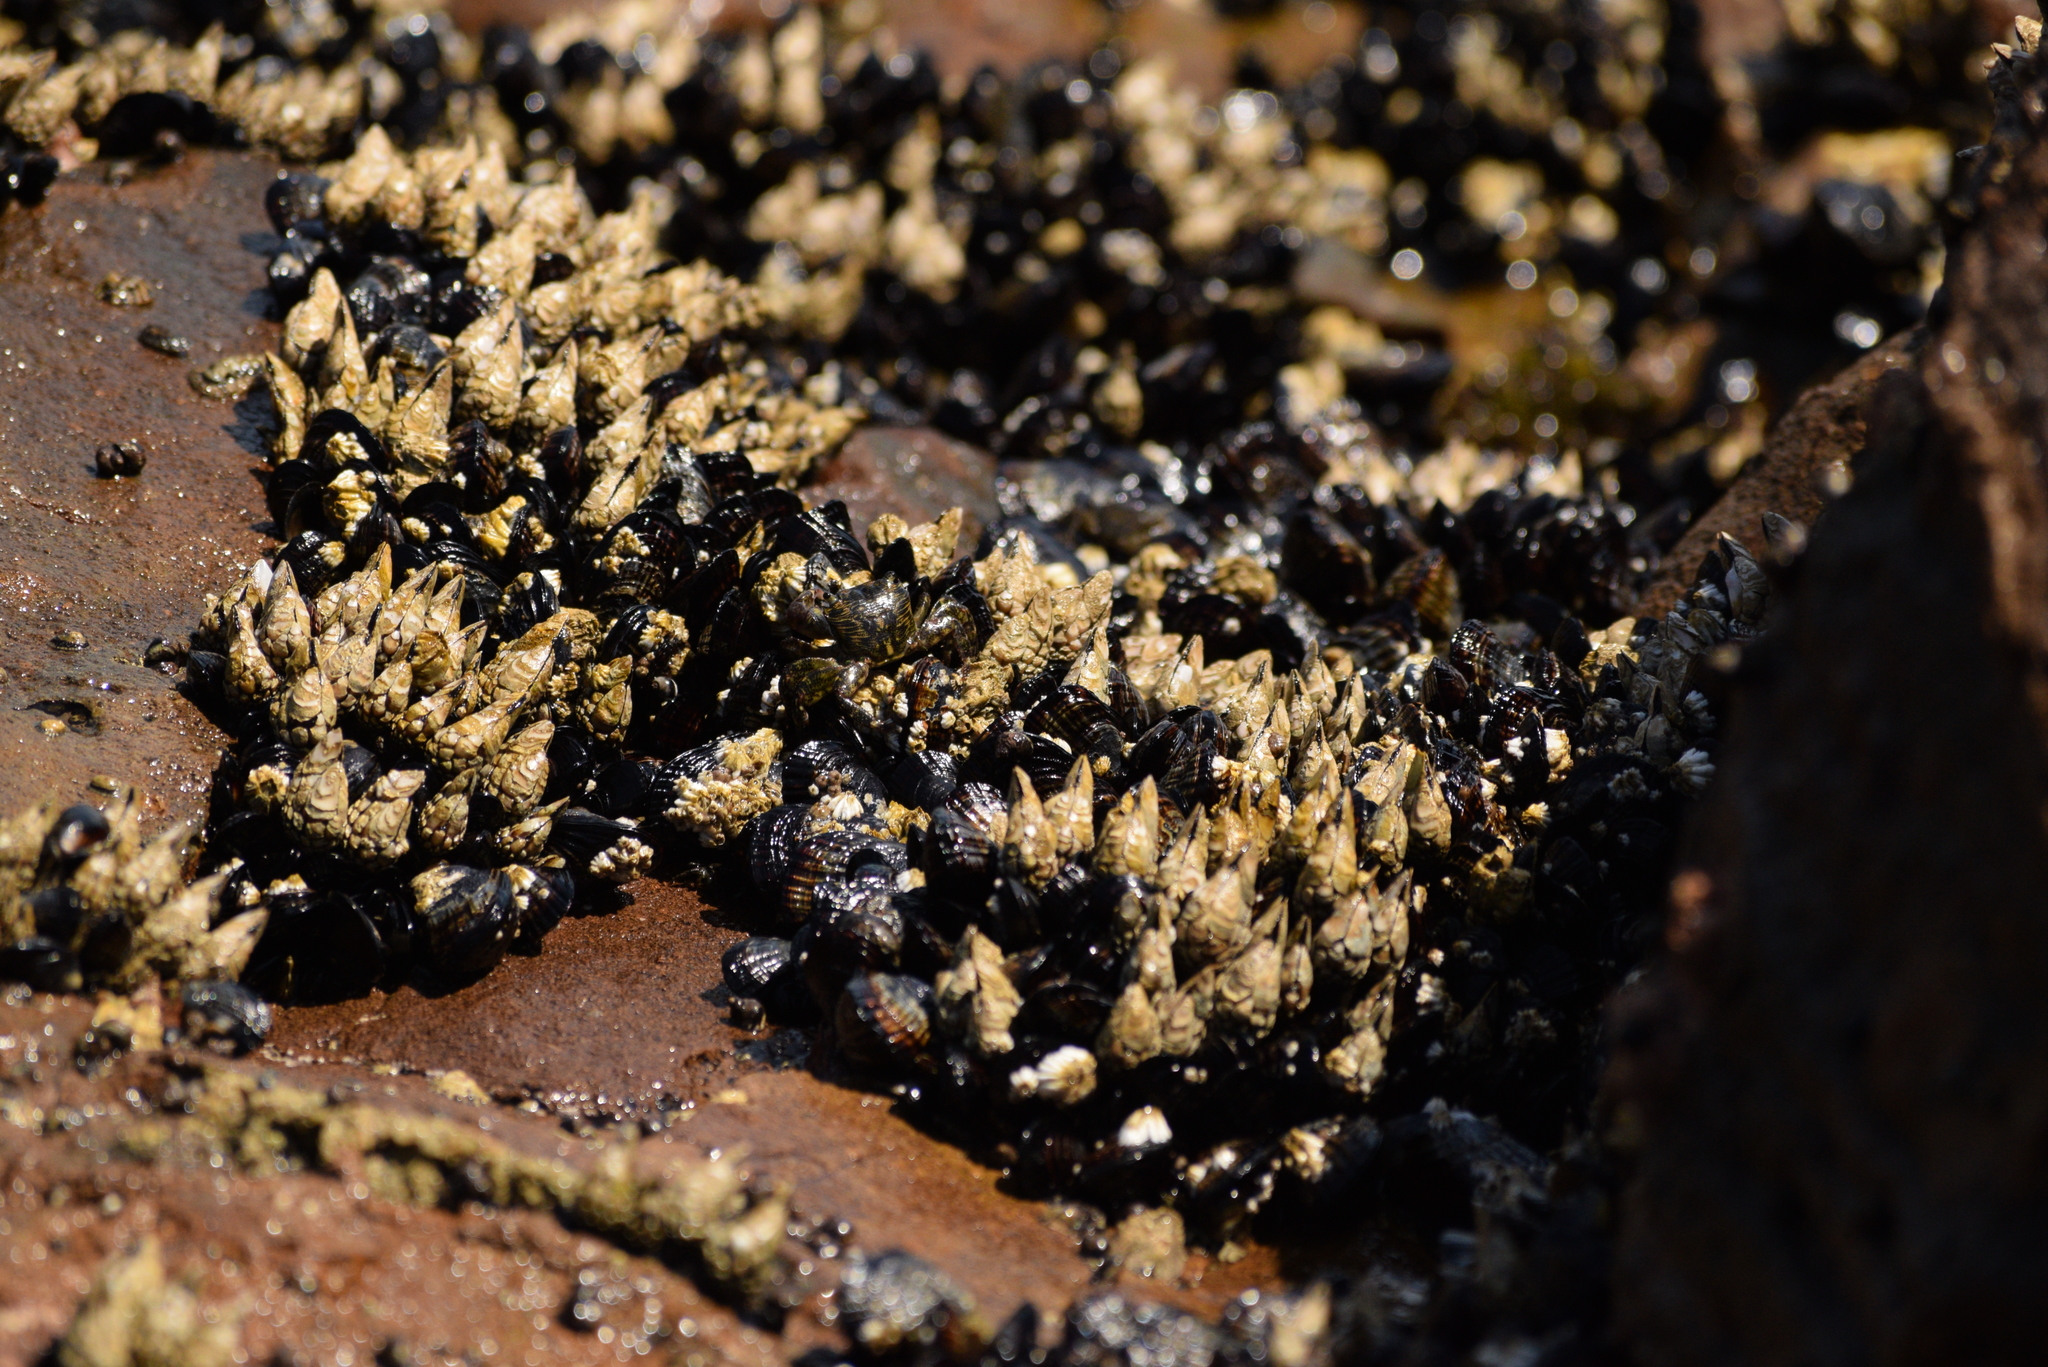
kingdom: Animalia
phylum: Arthropoda
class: Maxillopoda
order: Pedunculata
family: Pollicipedidae
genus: Pollicipes
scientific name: Pollicipes polymerus
